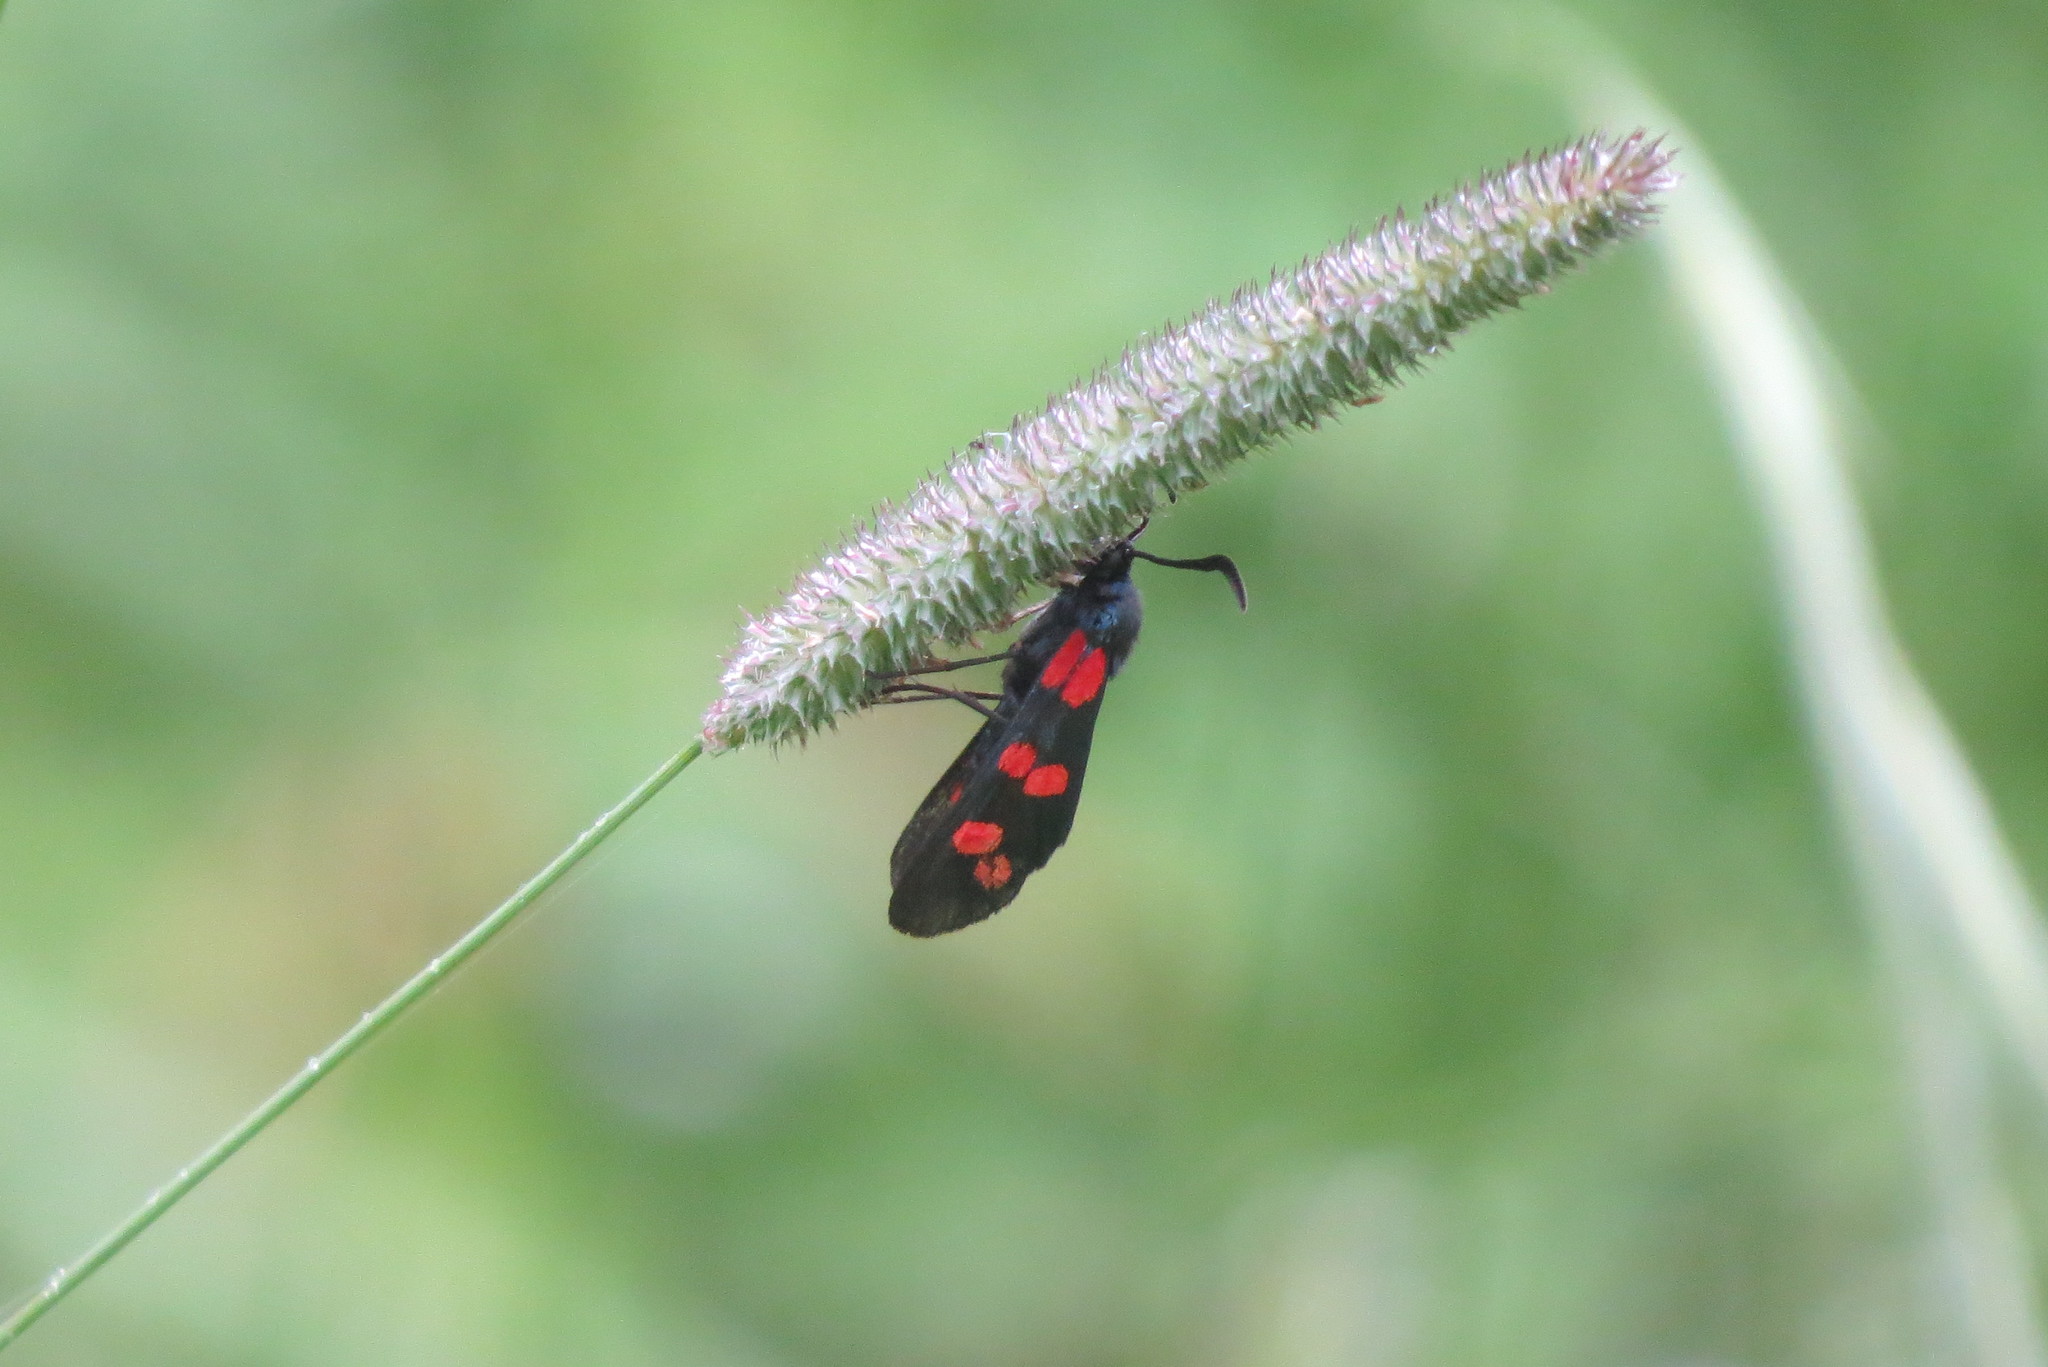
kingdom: Animalia
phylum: Arthropoda
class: Insecta
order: Lepidoptera
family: Zygaenidae
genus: Zygaena
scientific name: Zygaena filipendulae
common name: Six-spot burnet
